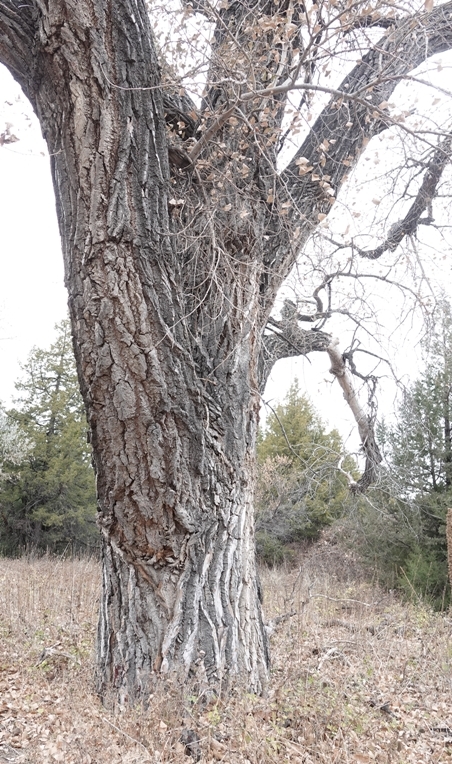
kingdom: Plantae
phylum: Tracheophyta
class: Magnoliopsida
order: Malpighiales
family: Salicaceae
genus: Populus
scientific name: Populus deltoides
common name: Eastern cottonwood
